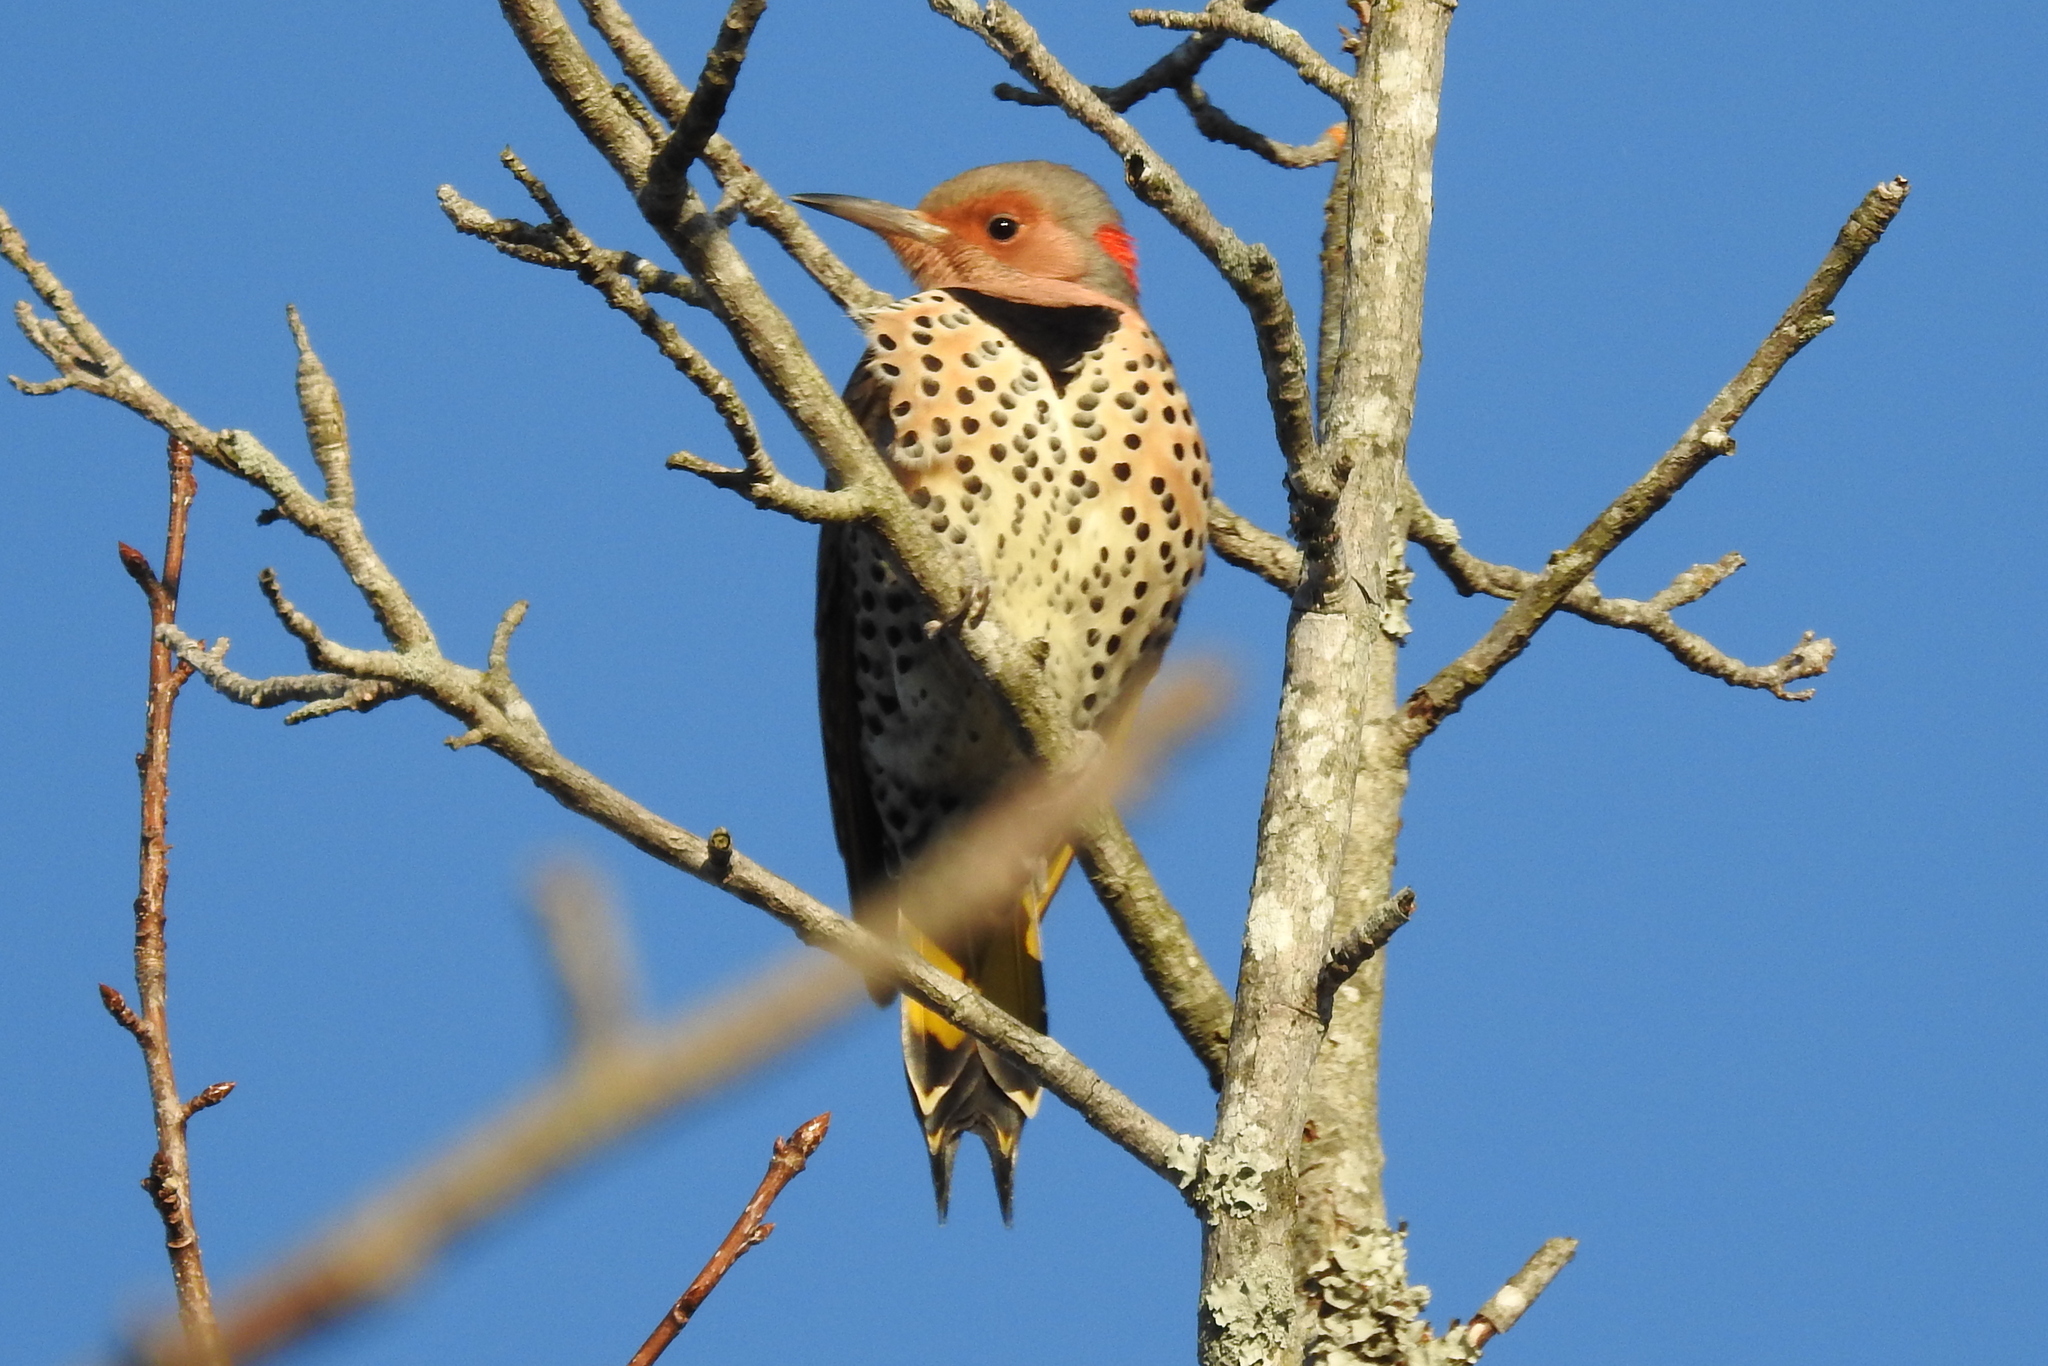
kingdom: Animalia
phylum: Chordata
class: Aves
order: Piciformes
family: Picidae
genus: Colaptes
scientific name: Colaptes auratus
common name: Northern flicker
